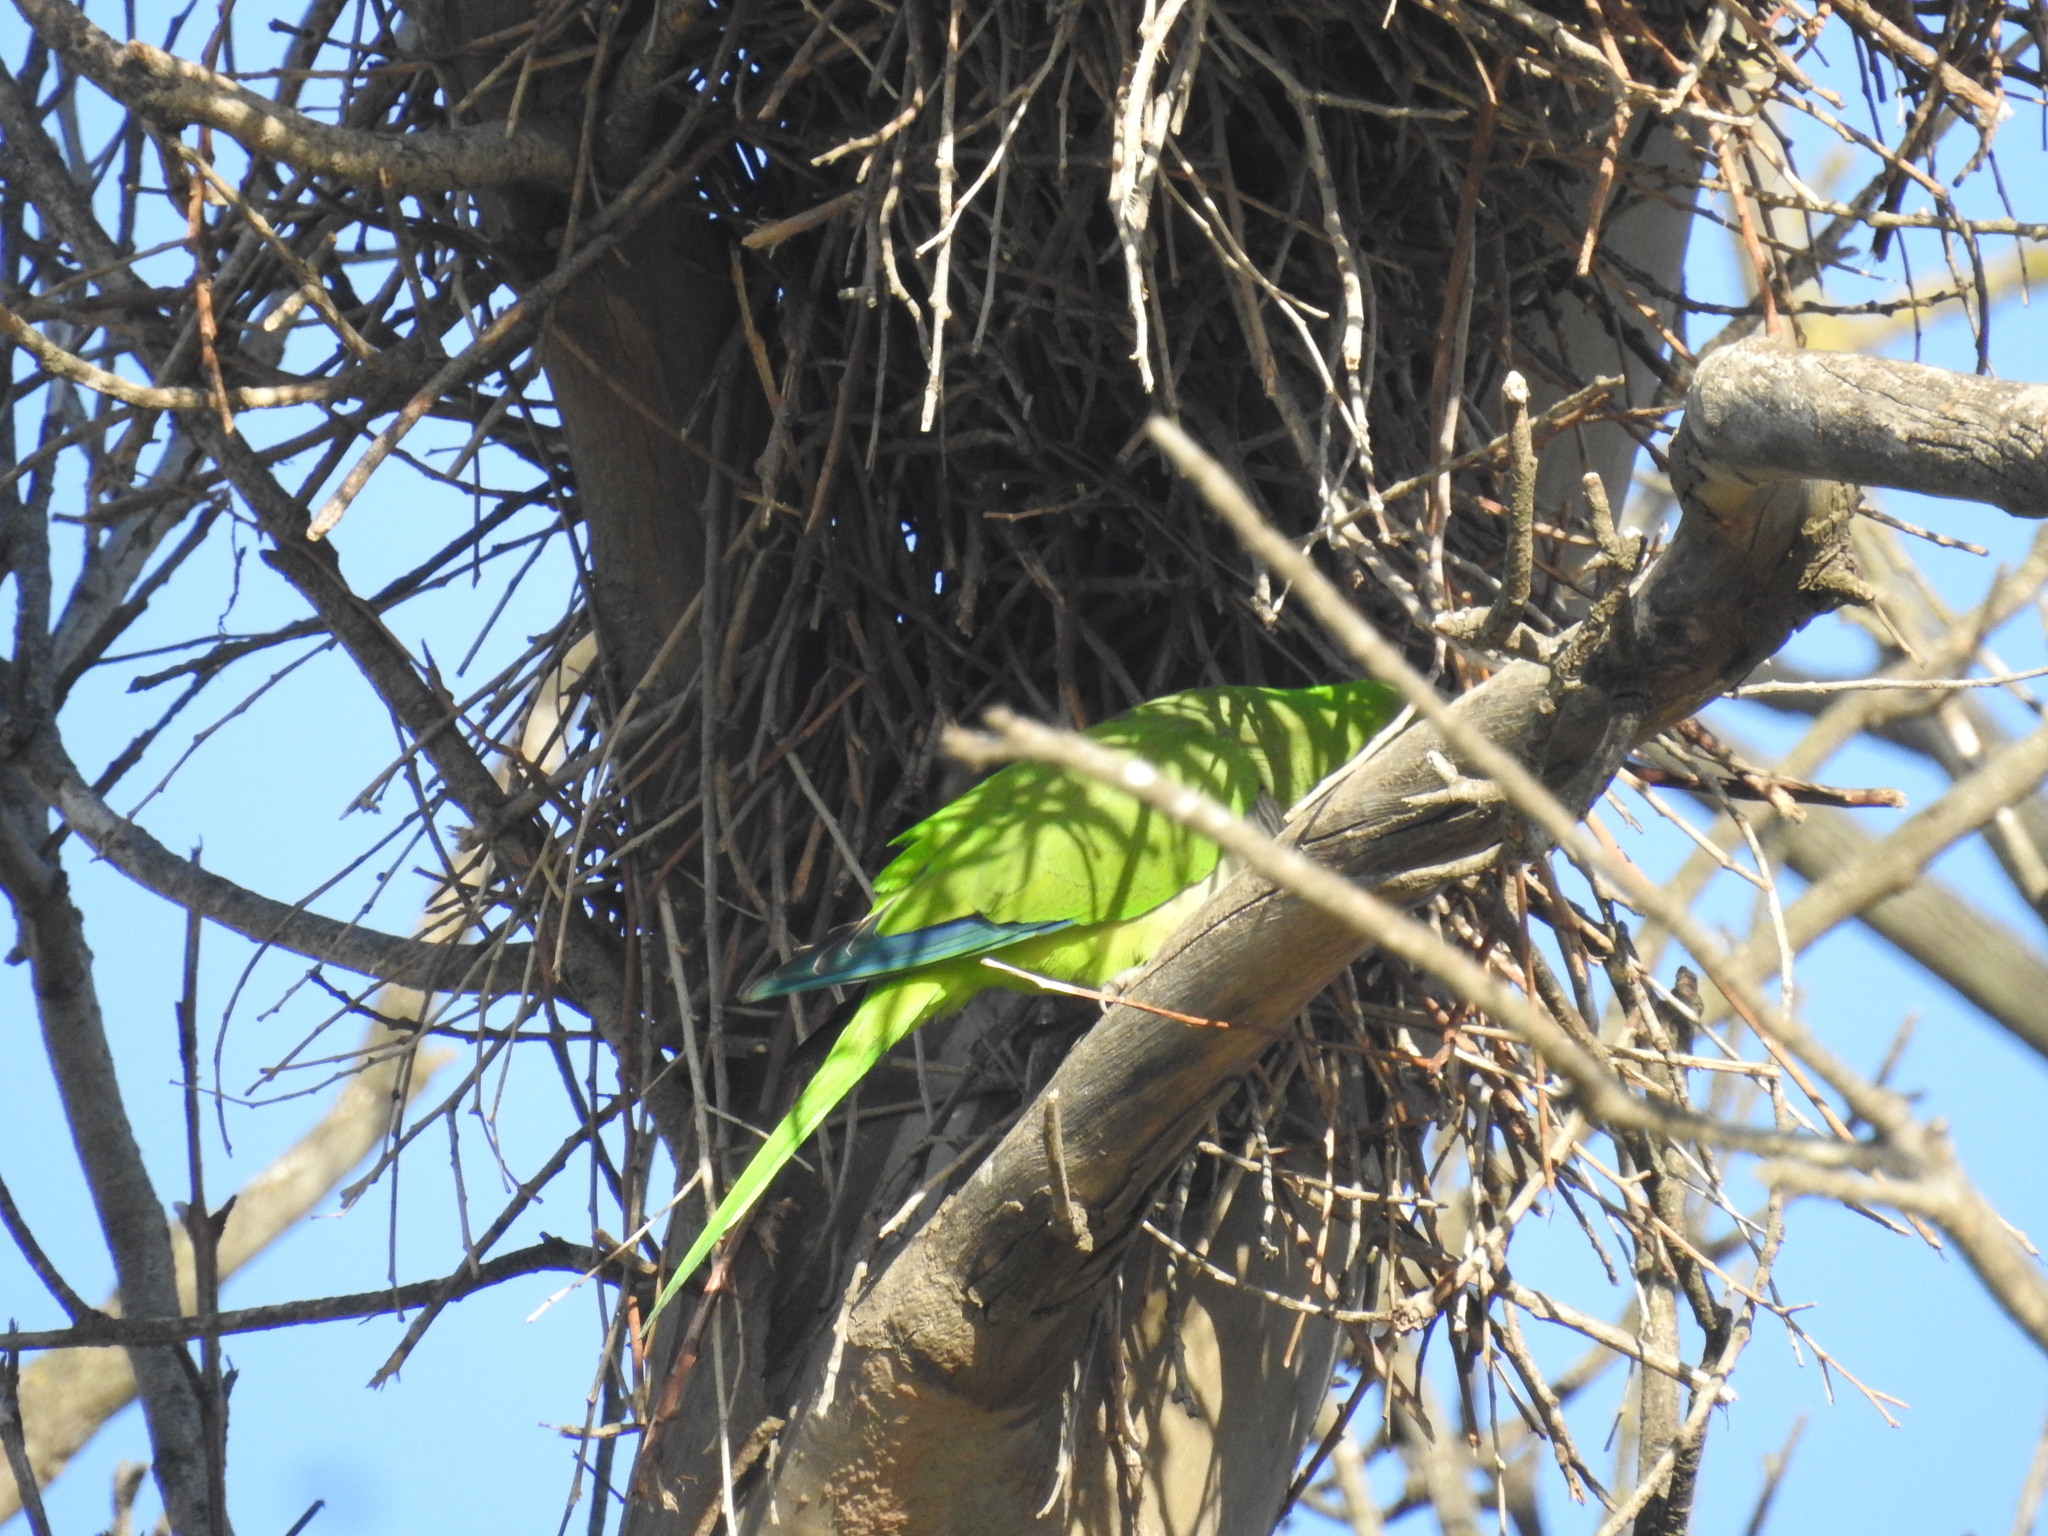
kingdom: Animalia
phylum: Chordata
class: Aves
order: Psittaciformes
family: Psittacidae
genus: Myiopsitta
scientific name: Myiopsitta monachus
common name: Monk parakeet
